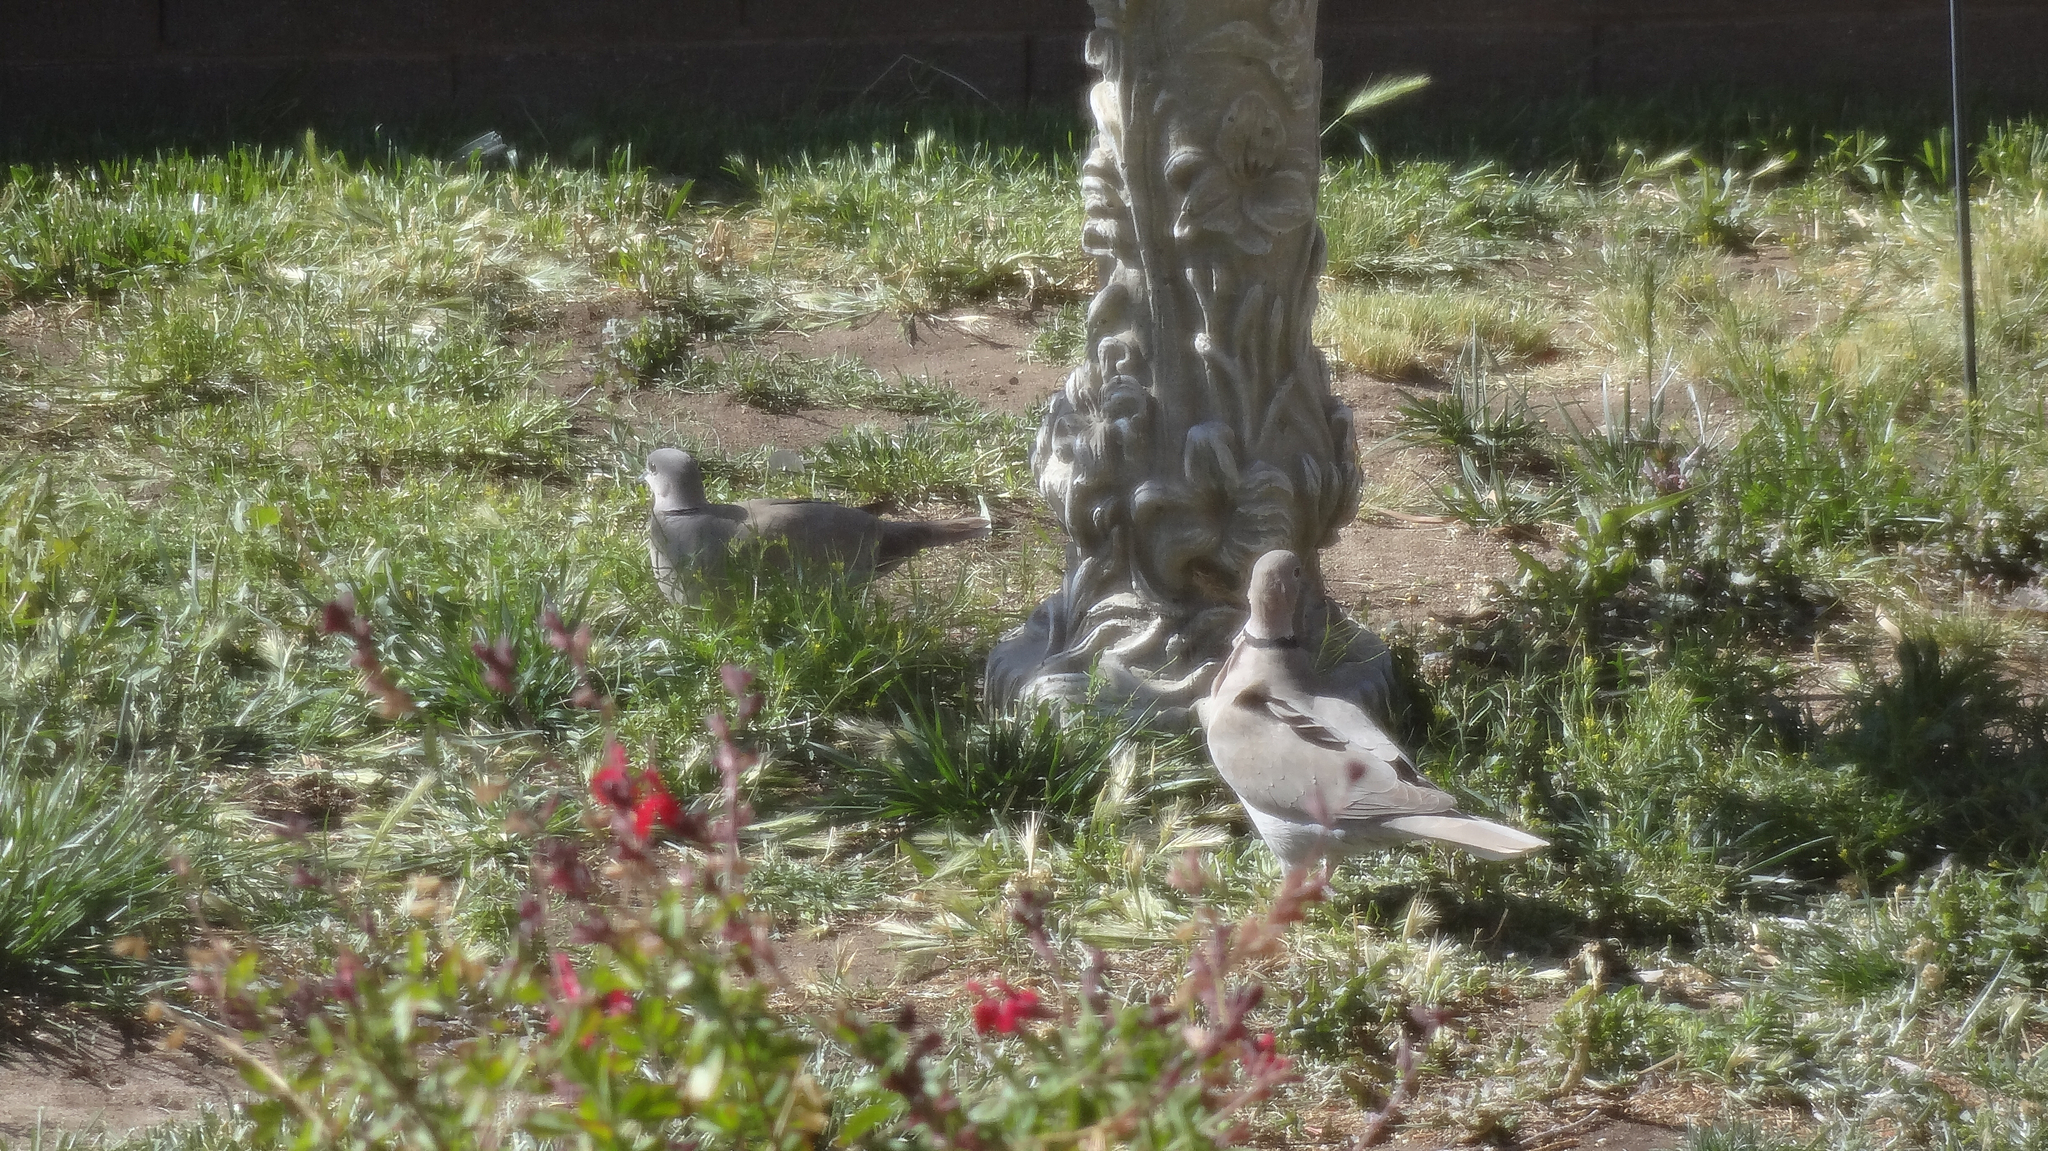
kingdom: Animalia
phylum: Chordata
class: Aves
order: Columbiformes
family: Columbidae
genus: Streptopelia
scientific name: Streptopelia decaocto
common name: Eurasian collared dove
